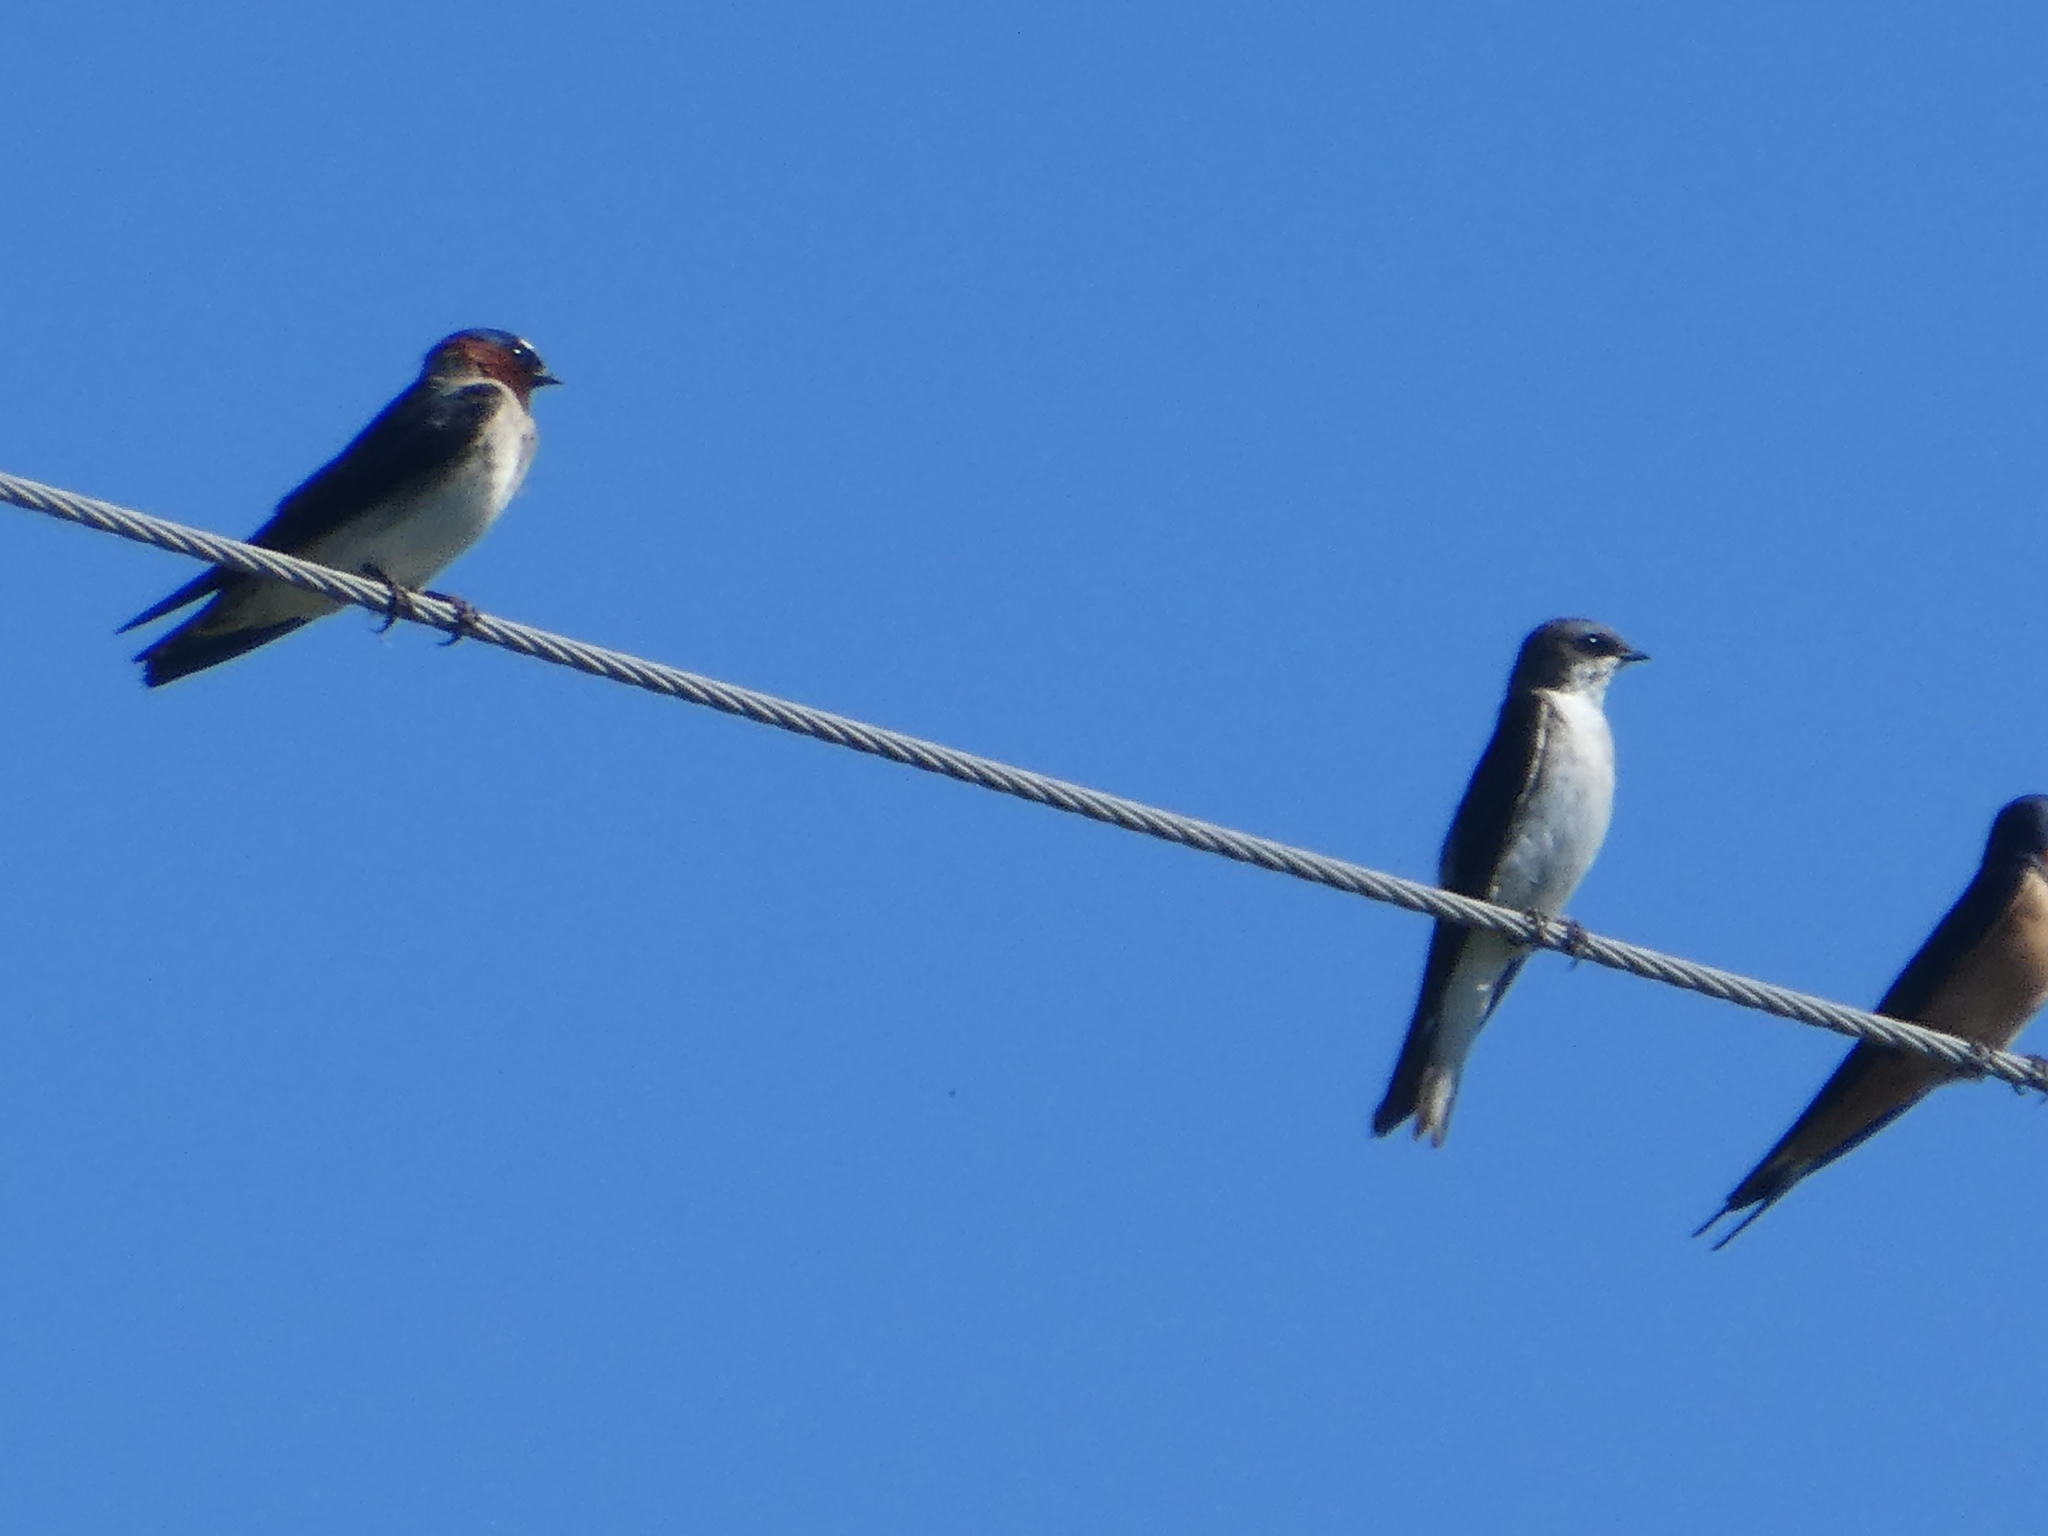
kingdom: Animalia
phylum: Chordata
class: Aves
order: Passeriformes
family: Hirundinidae
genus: Tachycineta
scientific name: Tachycineta bicolor
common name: Tree swallow
